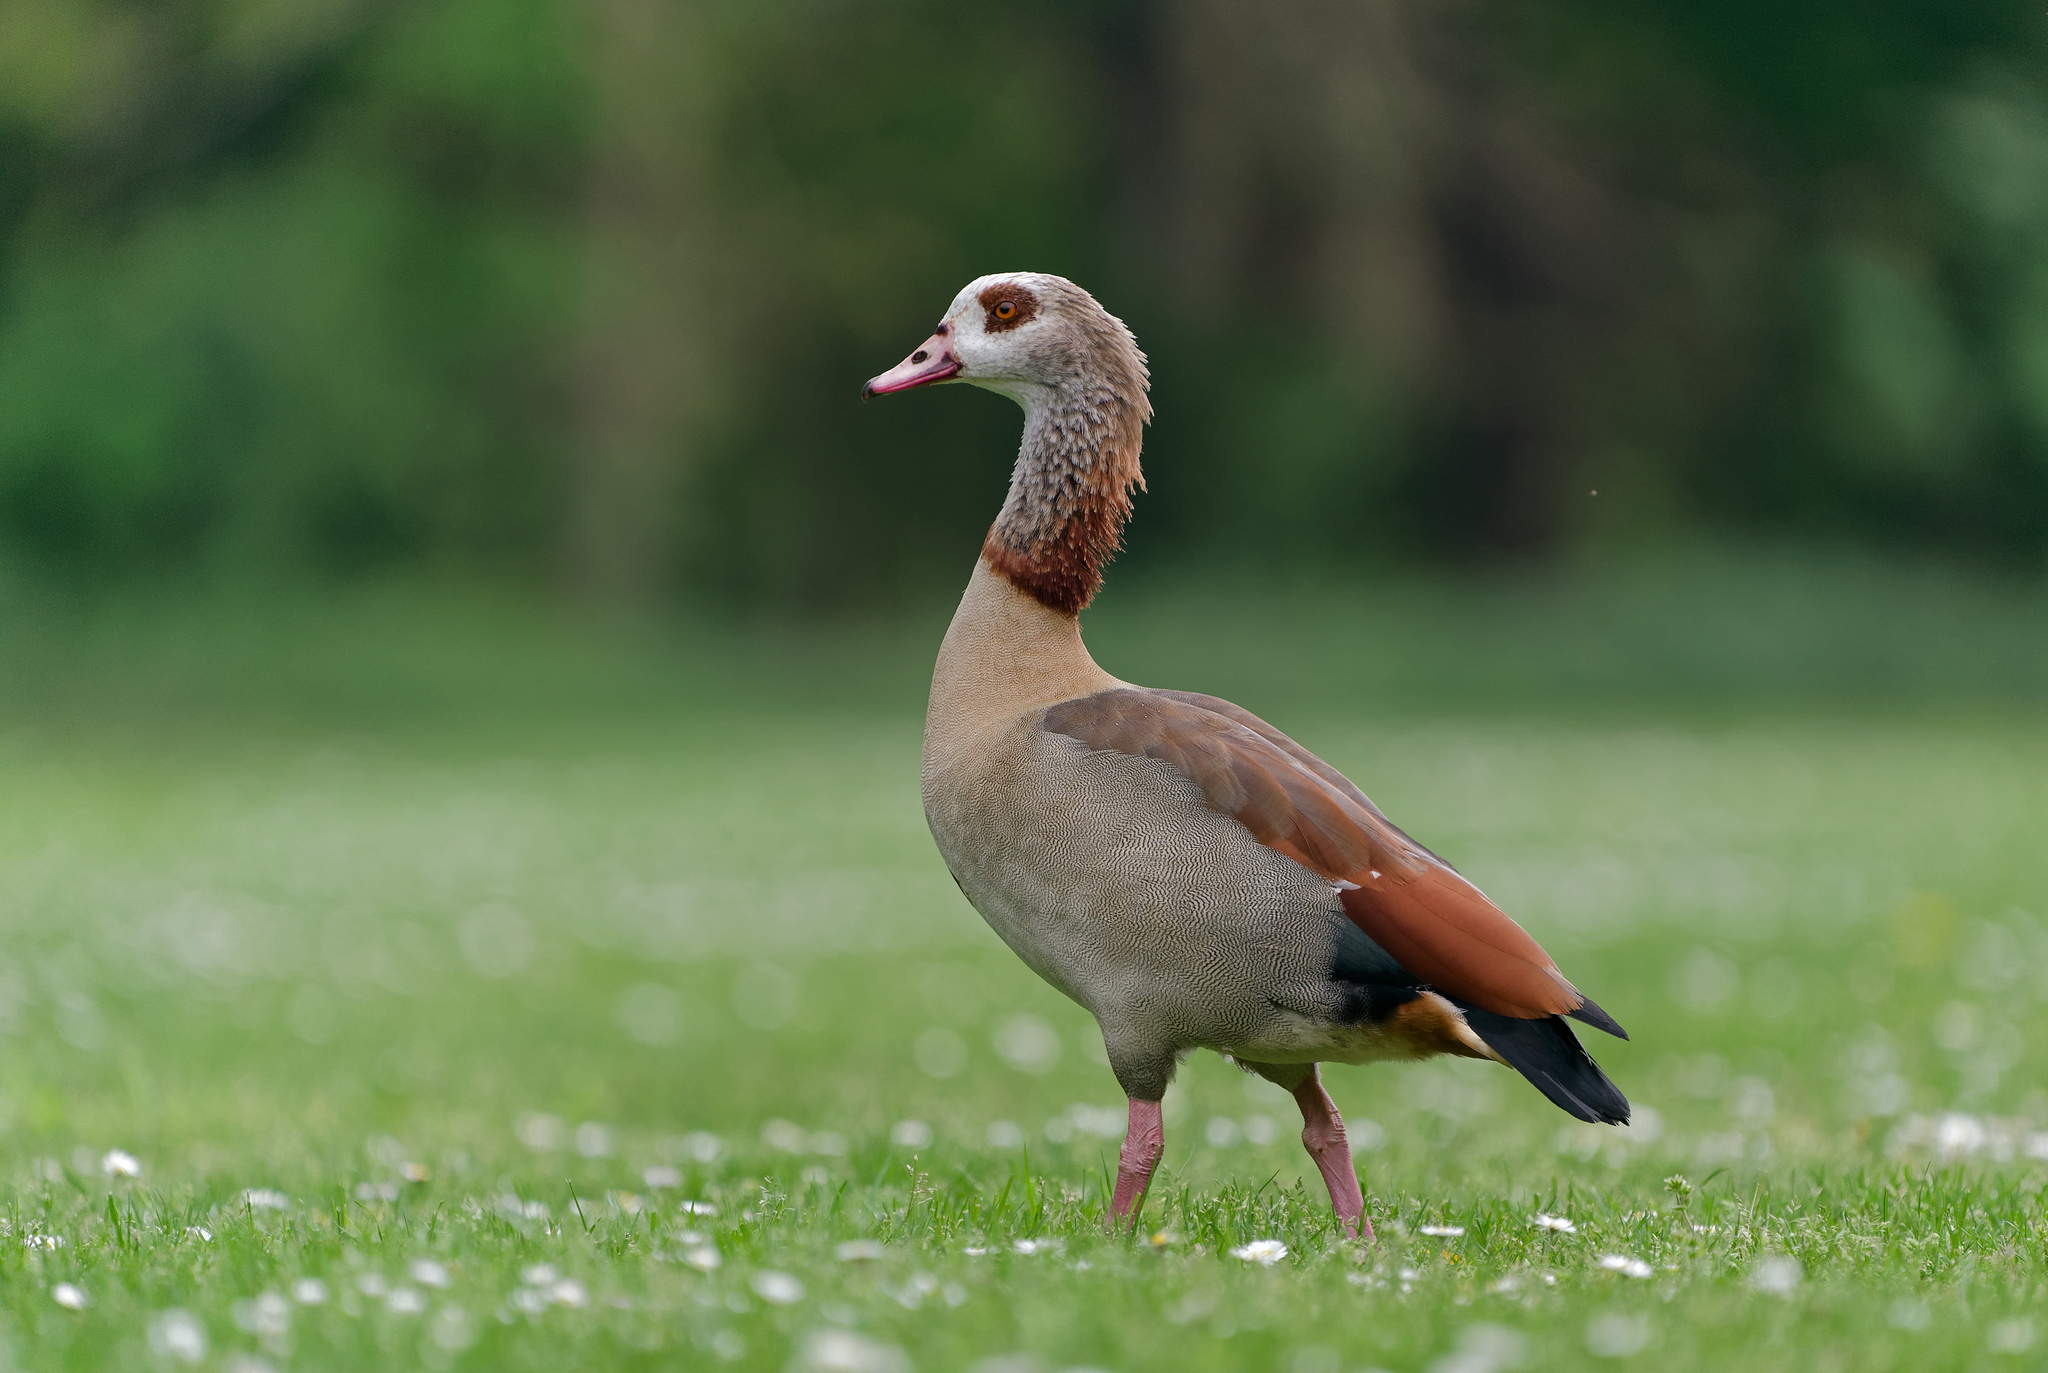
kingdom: Animalia
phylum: Chordata
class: Aves
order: Anseriformes
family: Anatidae
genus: Alopochen
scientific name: Alopochen aegyptiaca
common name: Egyptian goose
